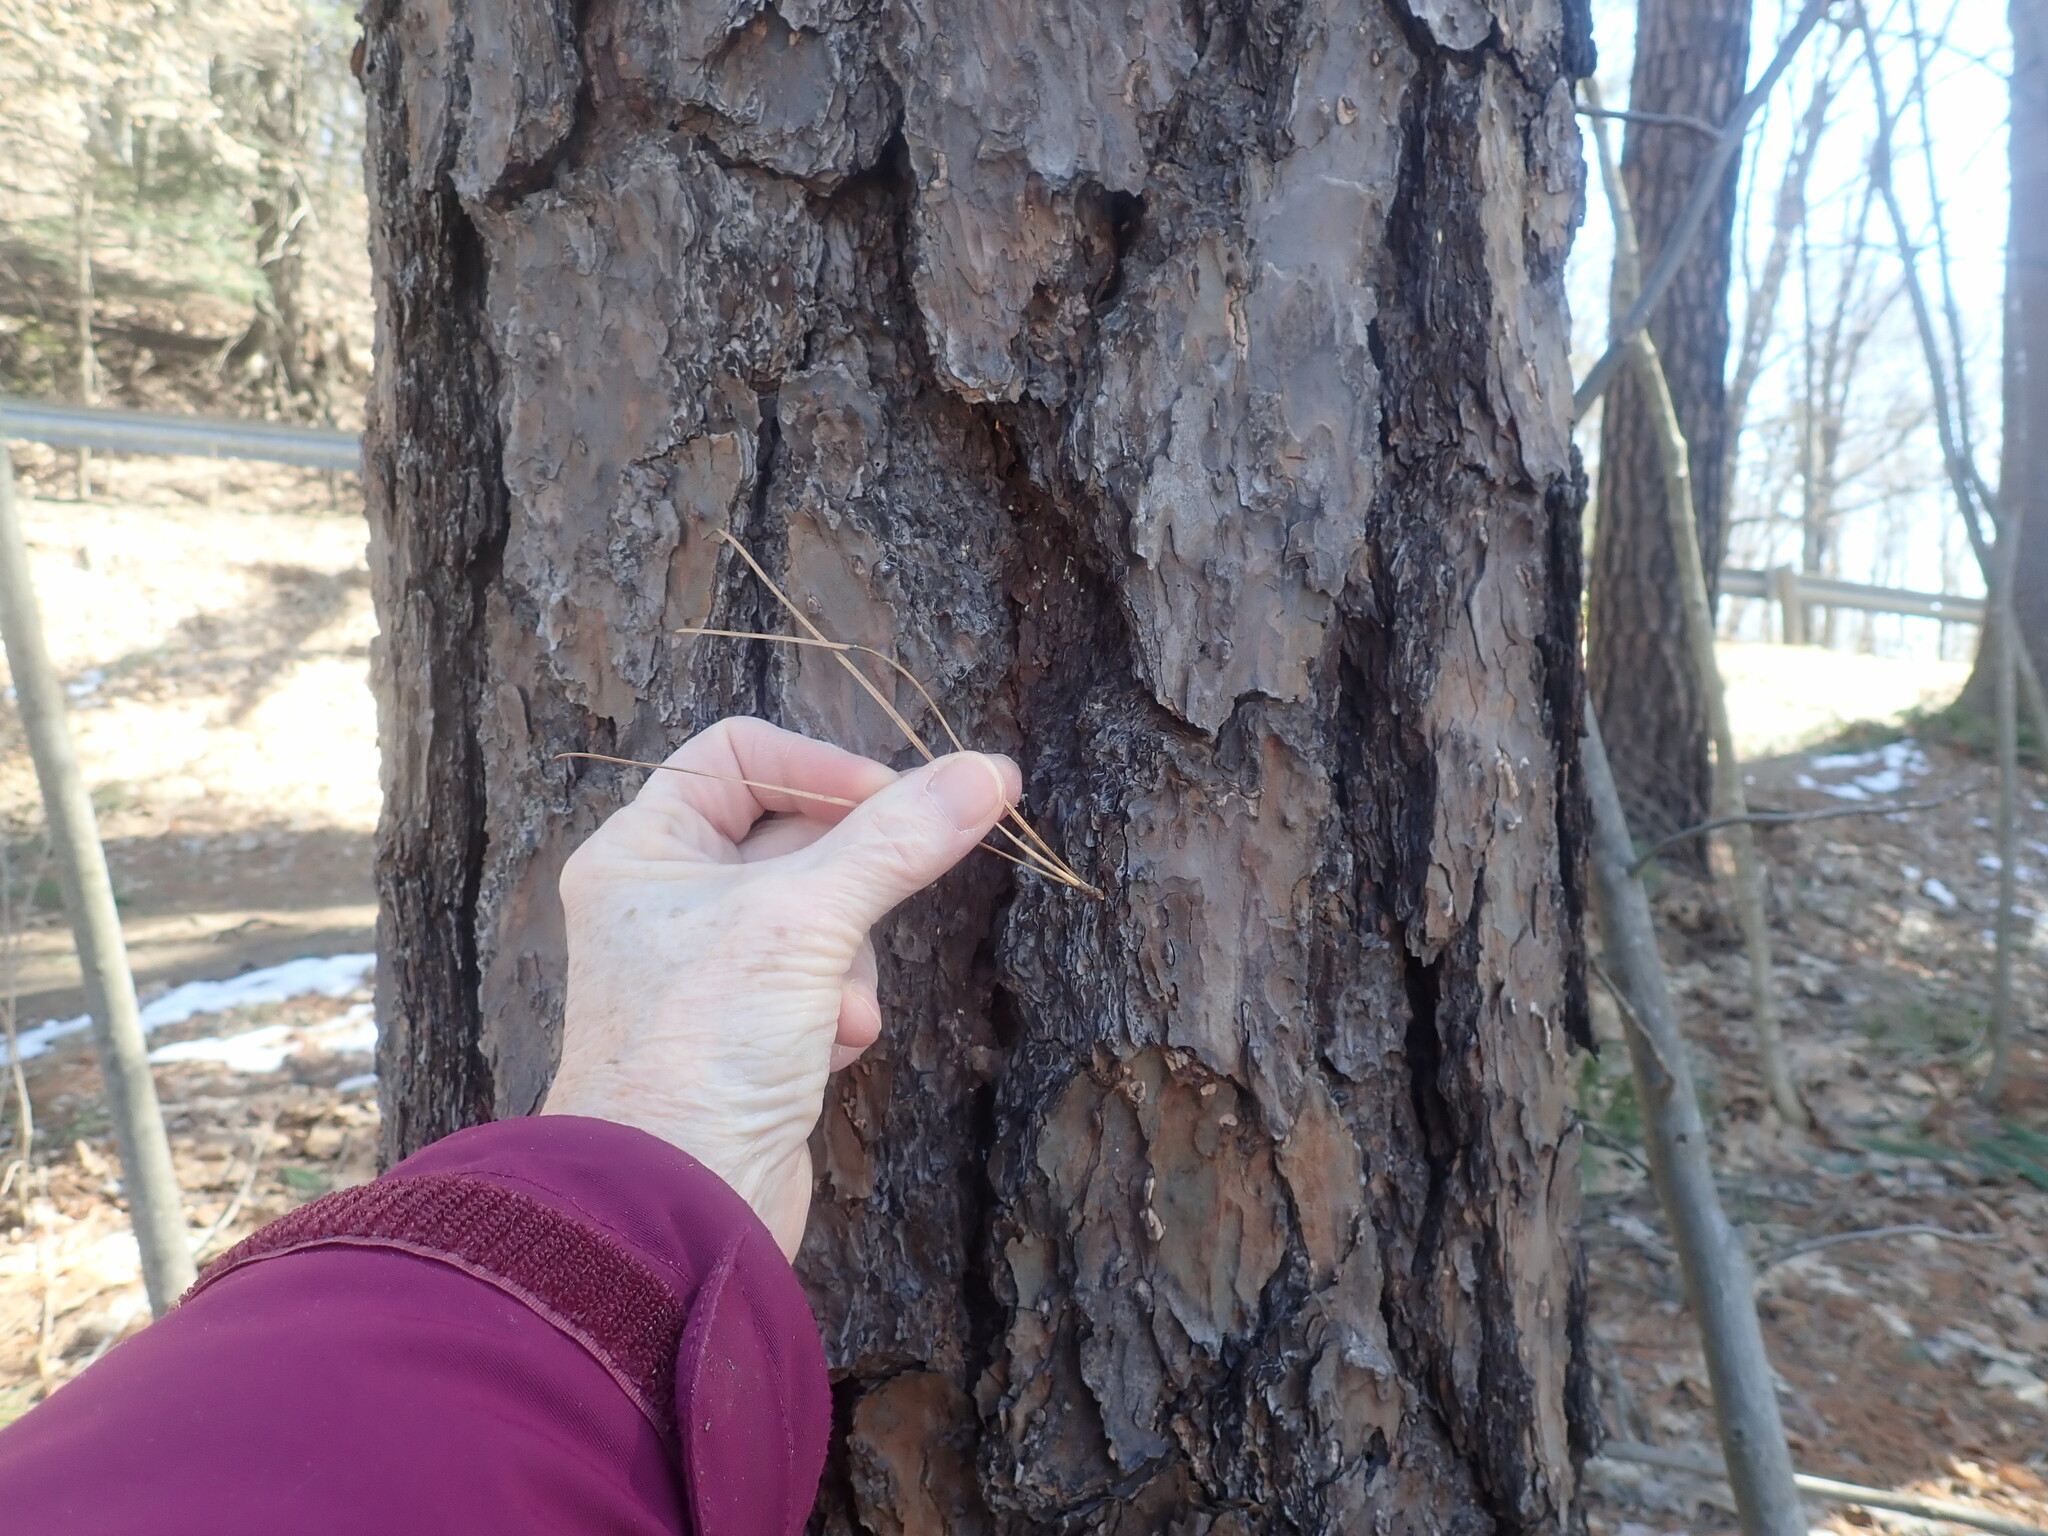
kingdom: Plantae
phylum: Tracheophyta
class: Pinopsida
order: Pinales
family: Pinaceae
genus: Pinus
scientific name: Pinus rigida
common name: Pitch pine
